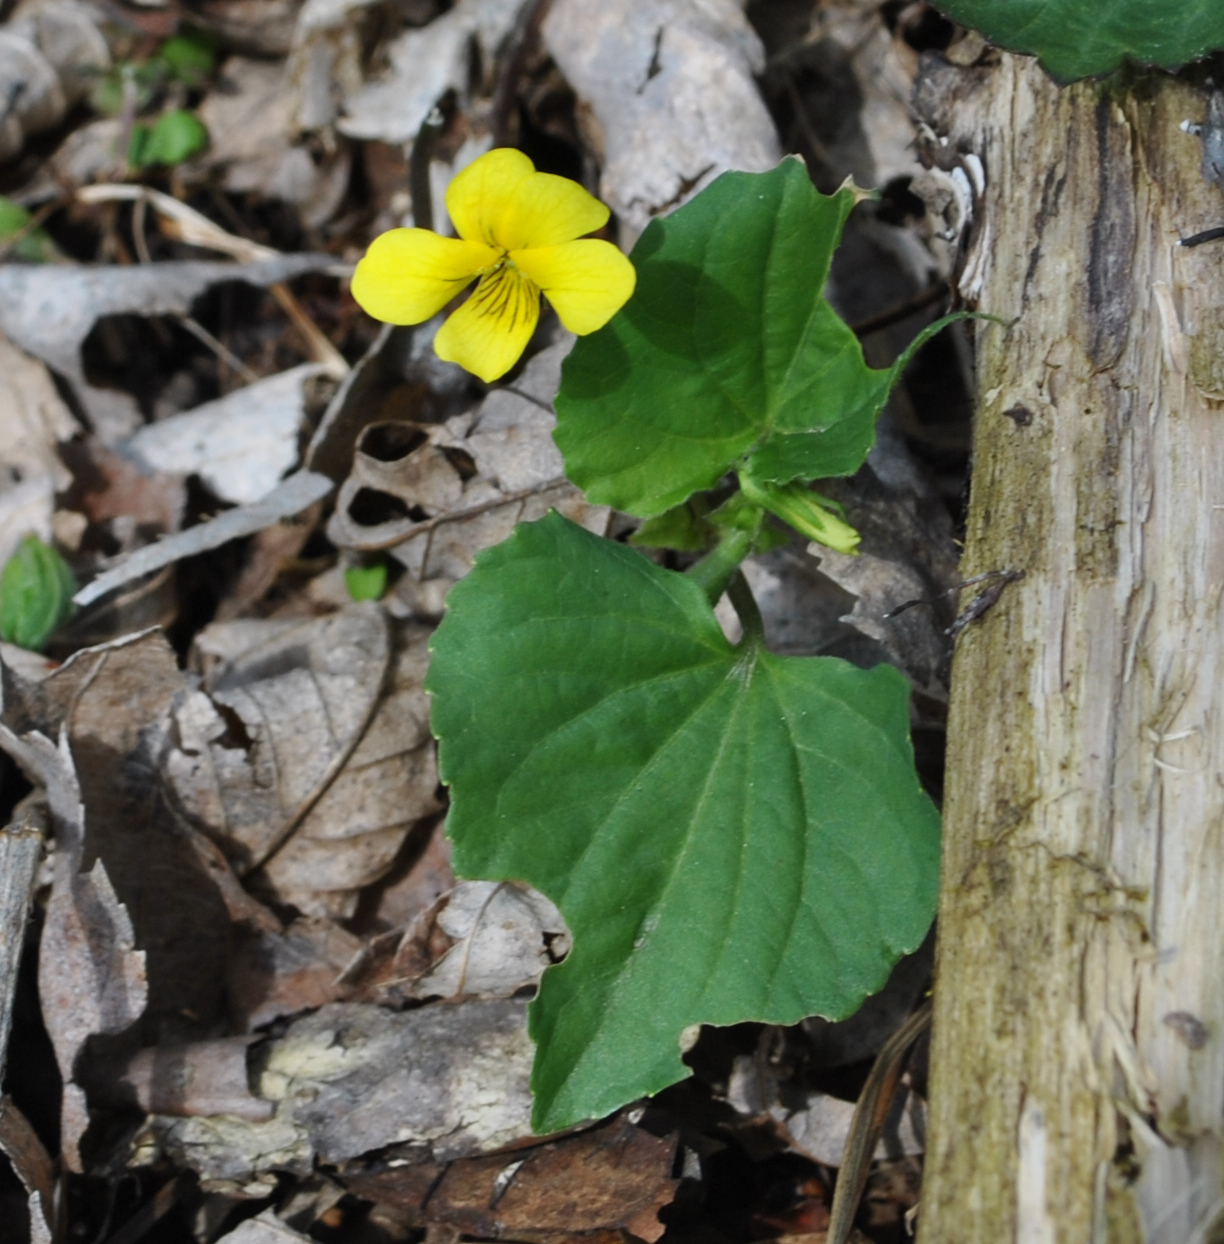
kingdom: Plantae
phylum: Tracheophyta
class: Magnoliopsida
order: Malpighiales
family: Violaceae
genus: Viola
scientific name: Viola eriocarpa
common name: Smooth yellow violet
